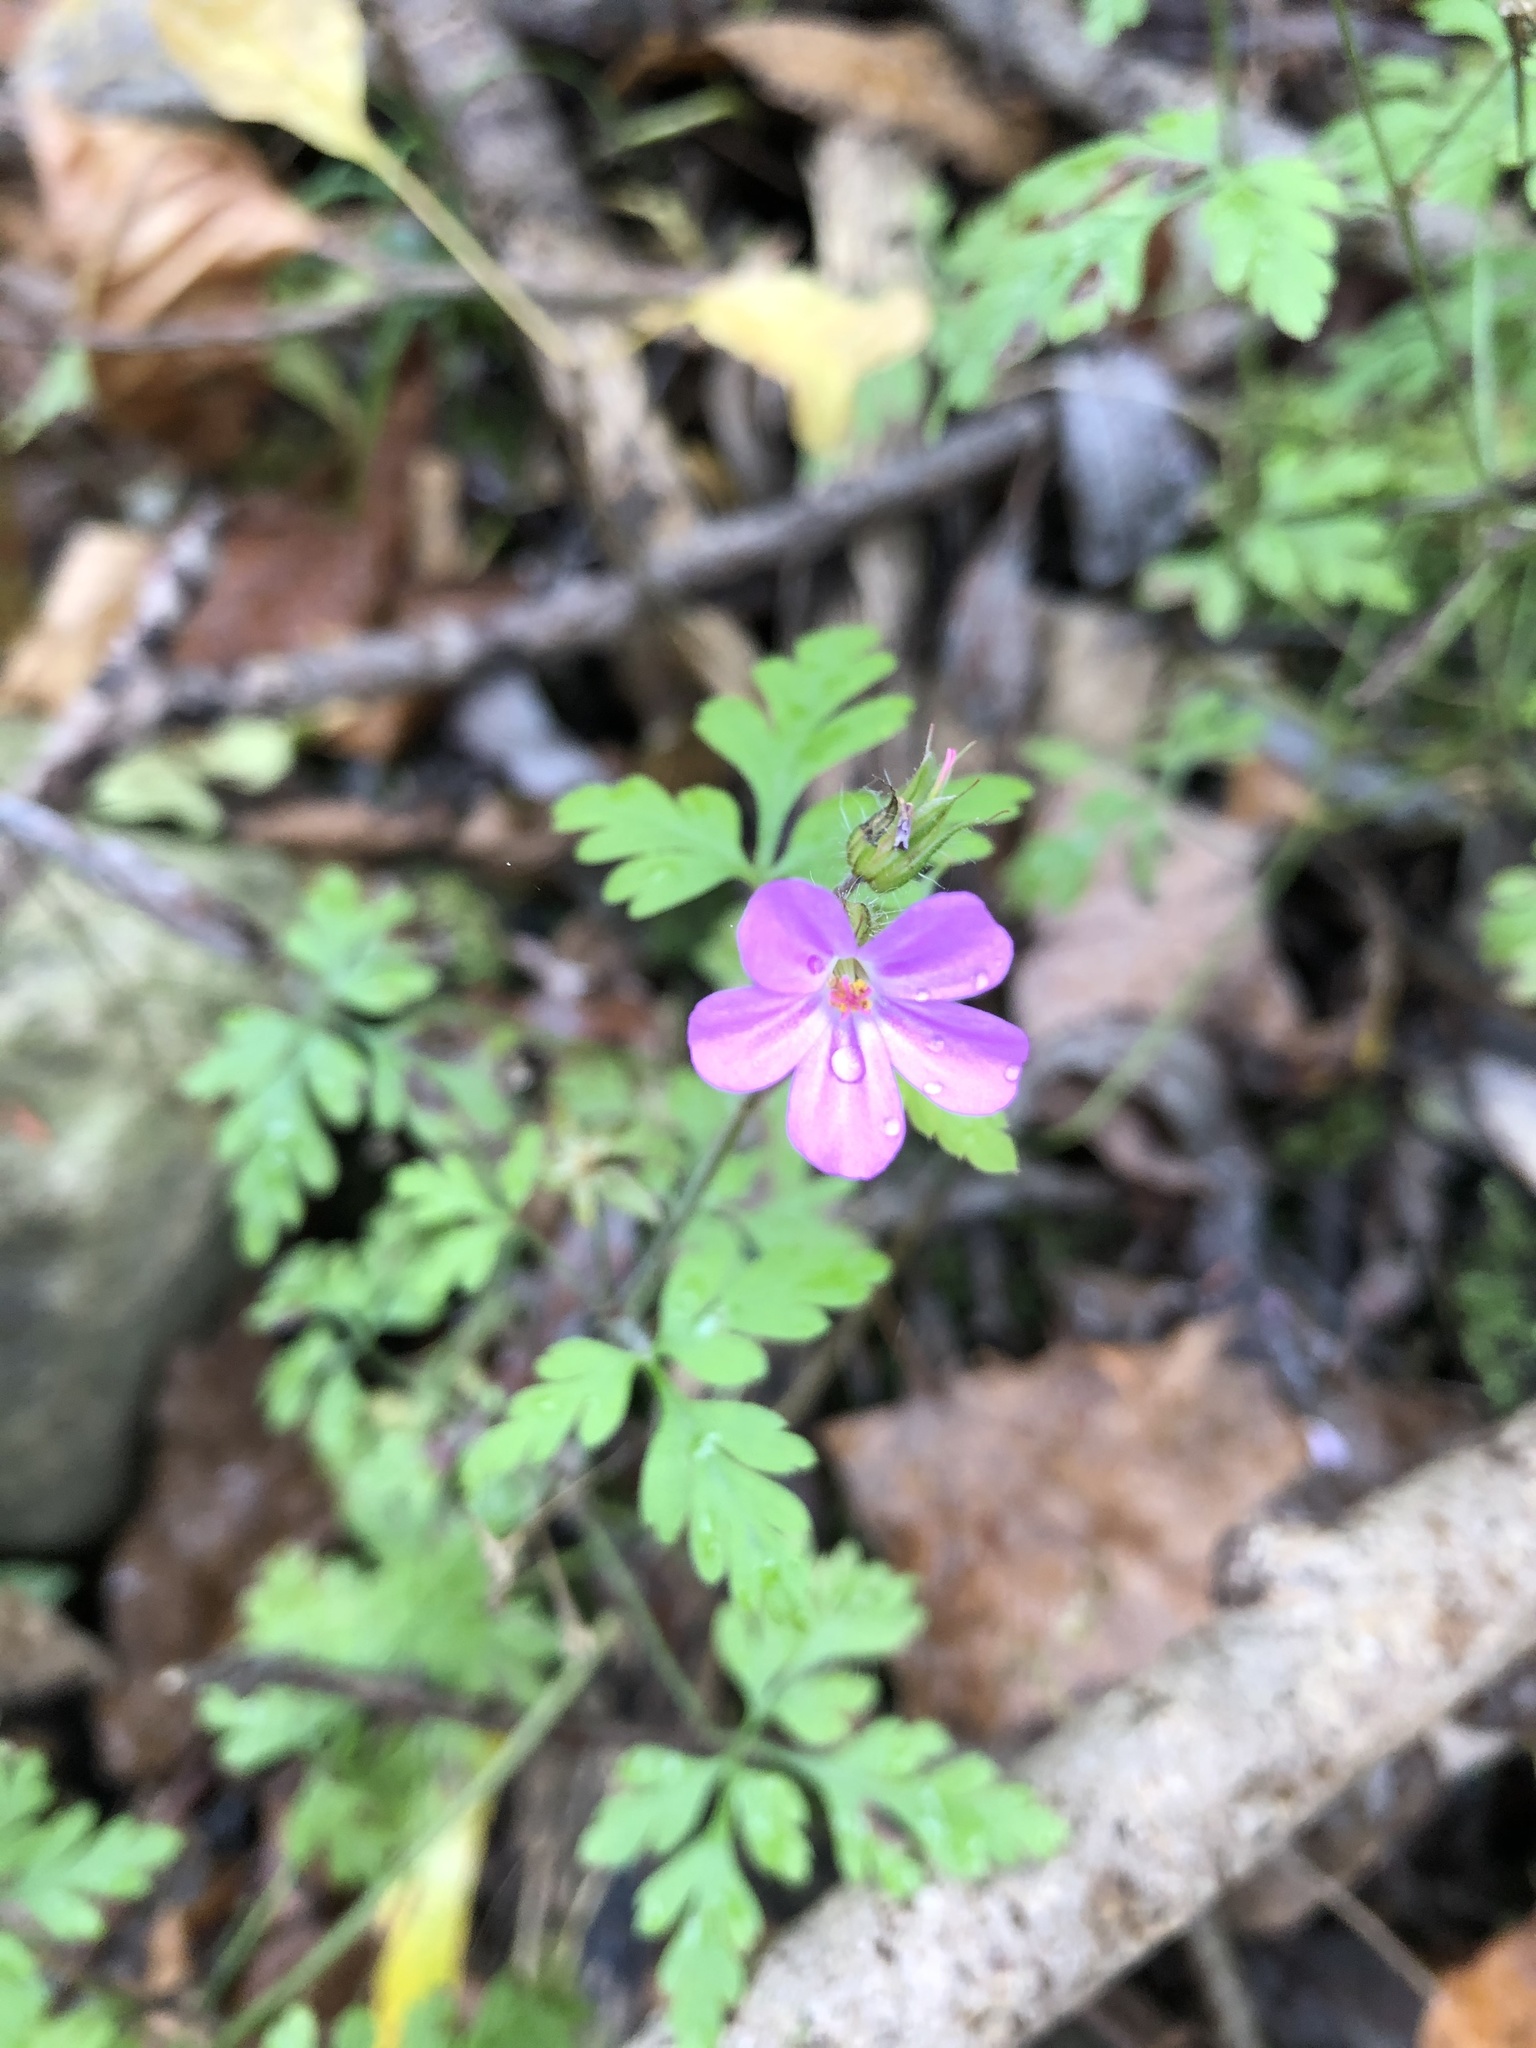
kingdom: Plantae
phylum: Tracheophyta
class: Magnoliopsida
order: Geraniales
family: Geraniaceae
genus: Geranium
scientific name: Geranium robertianum
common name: Herb-robert
